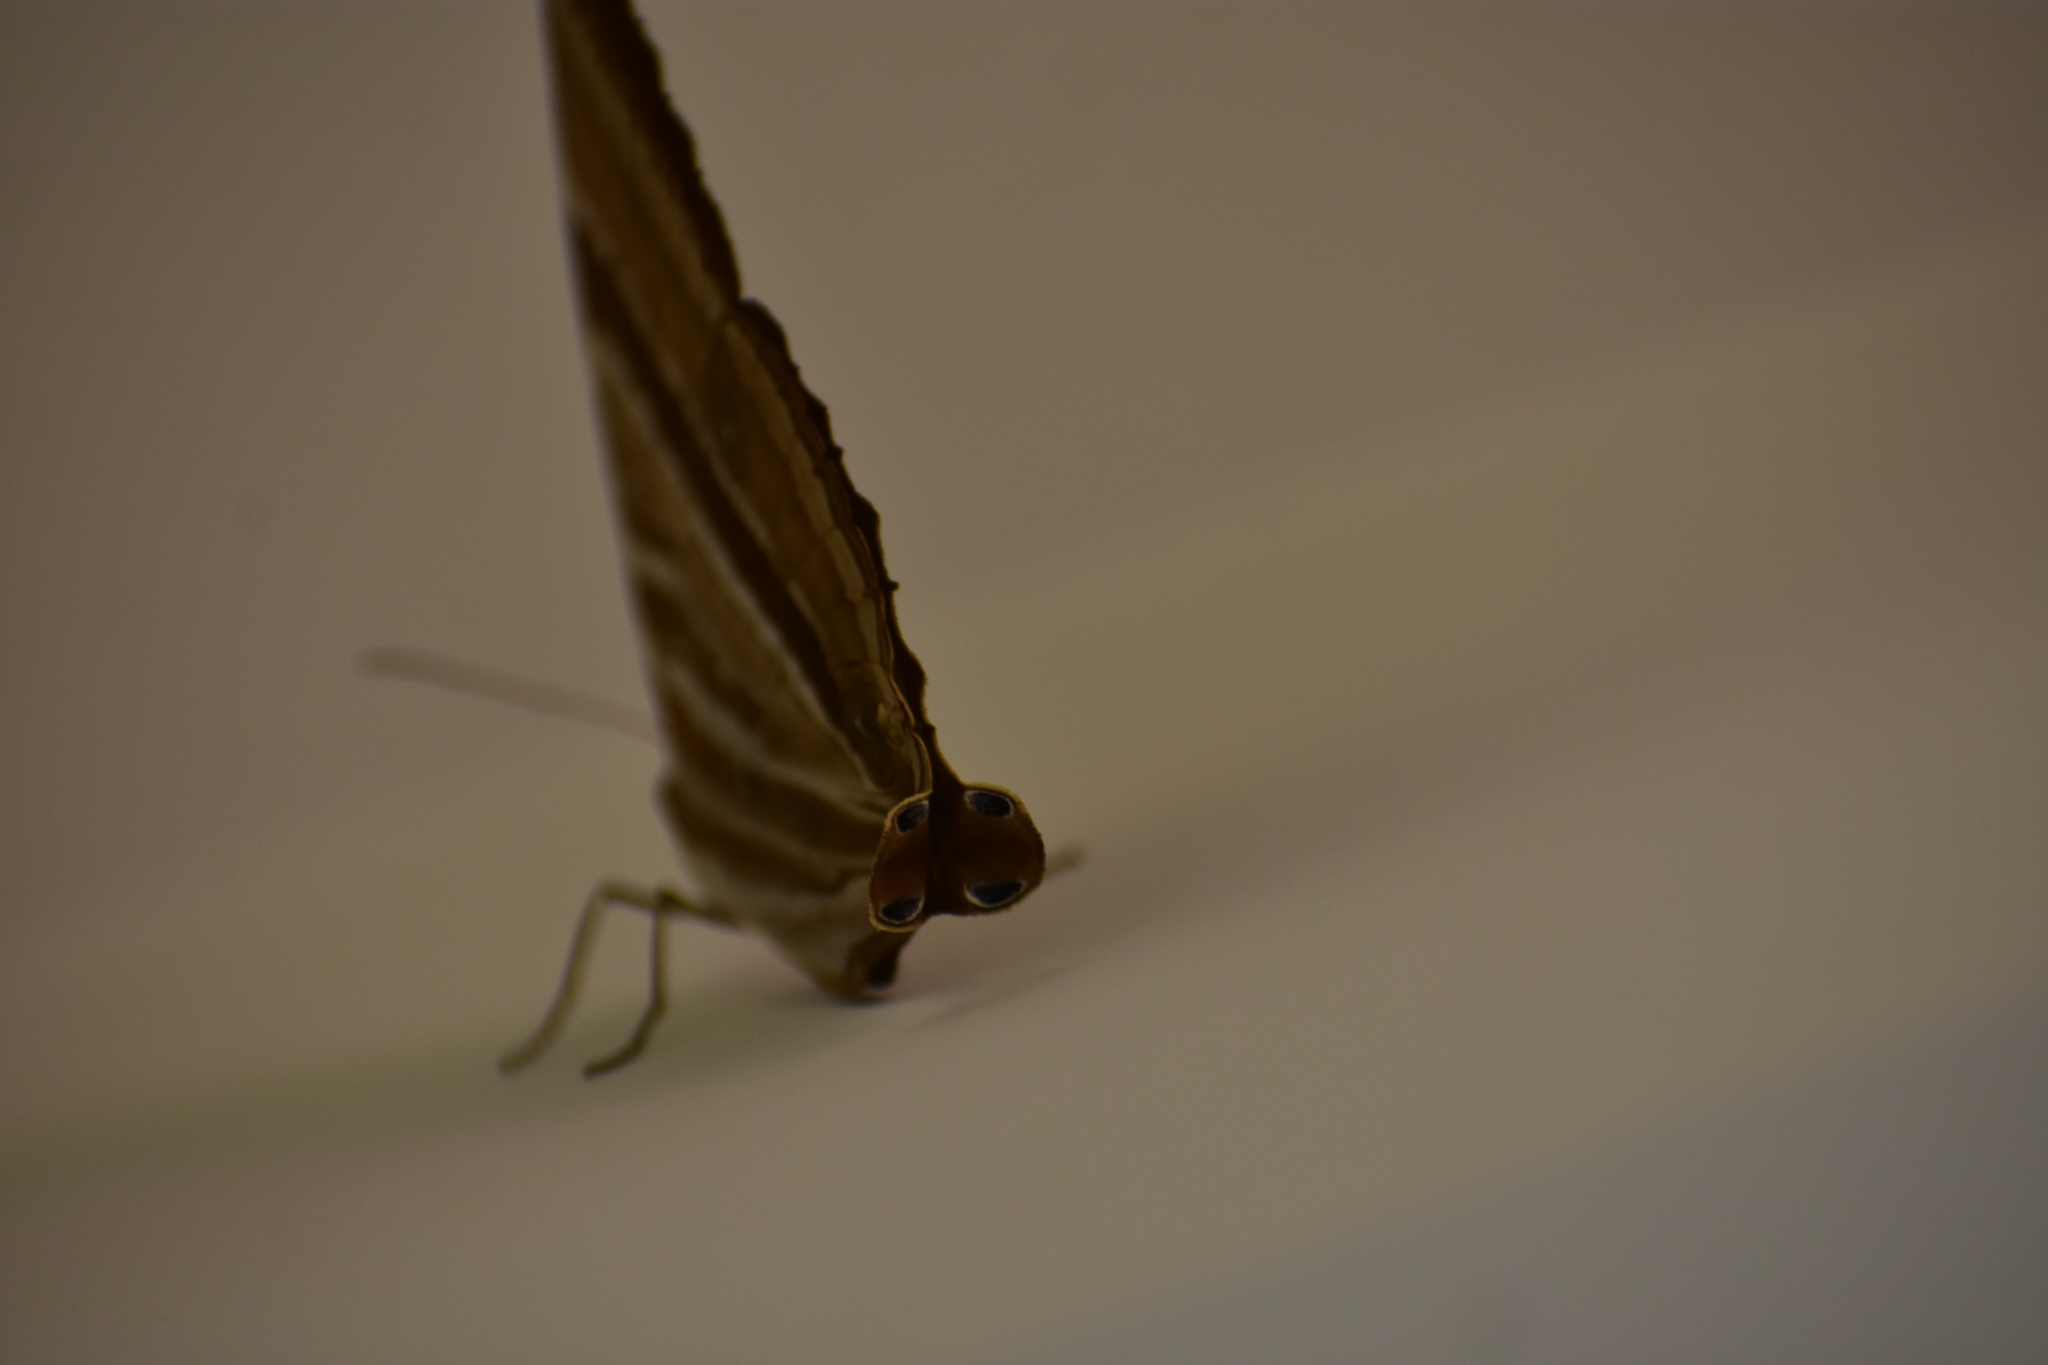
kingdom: Animalia
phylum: Arthropoda
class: Insecta
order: Lepidoptera
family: Nymphalidae
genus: Amathusia
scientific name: Amathusia phidippus
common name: Palm king
